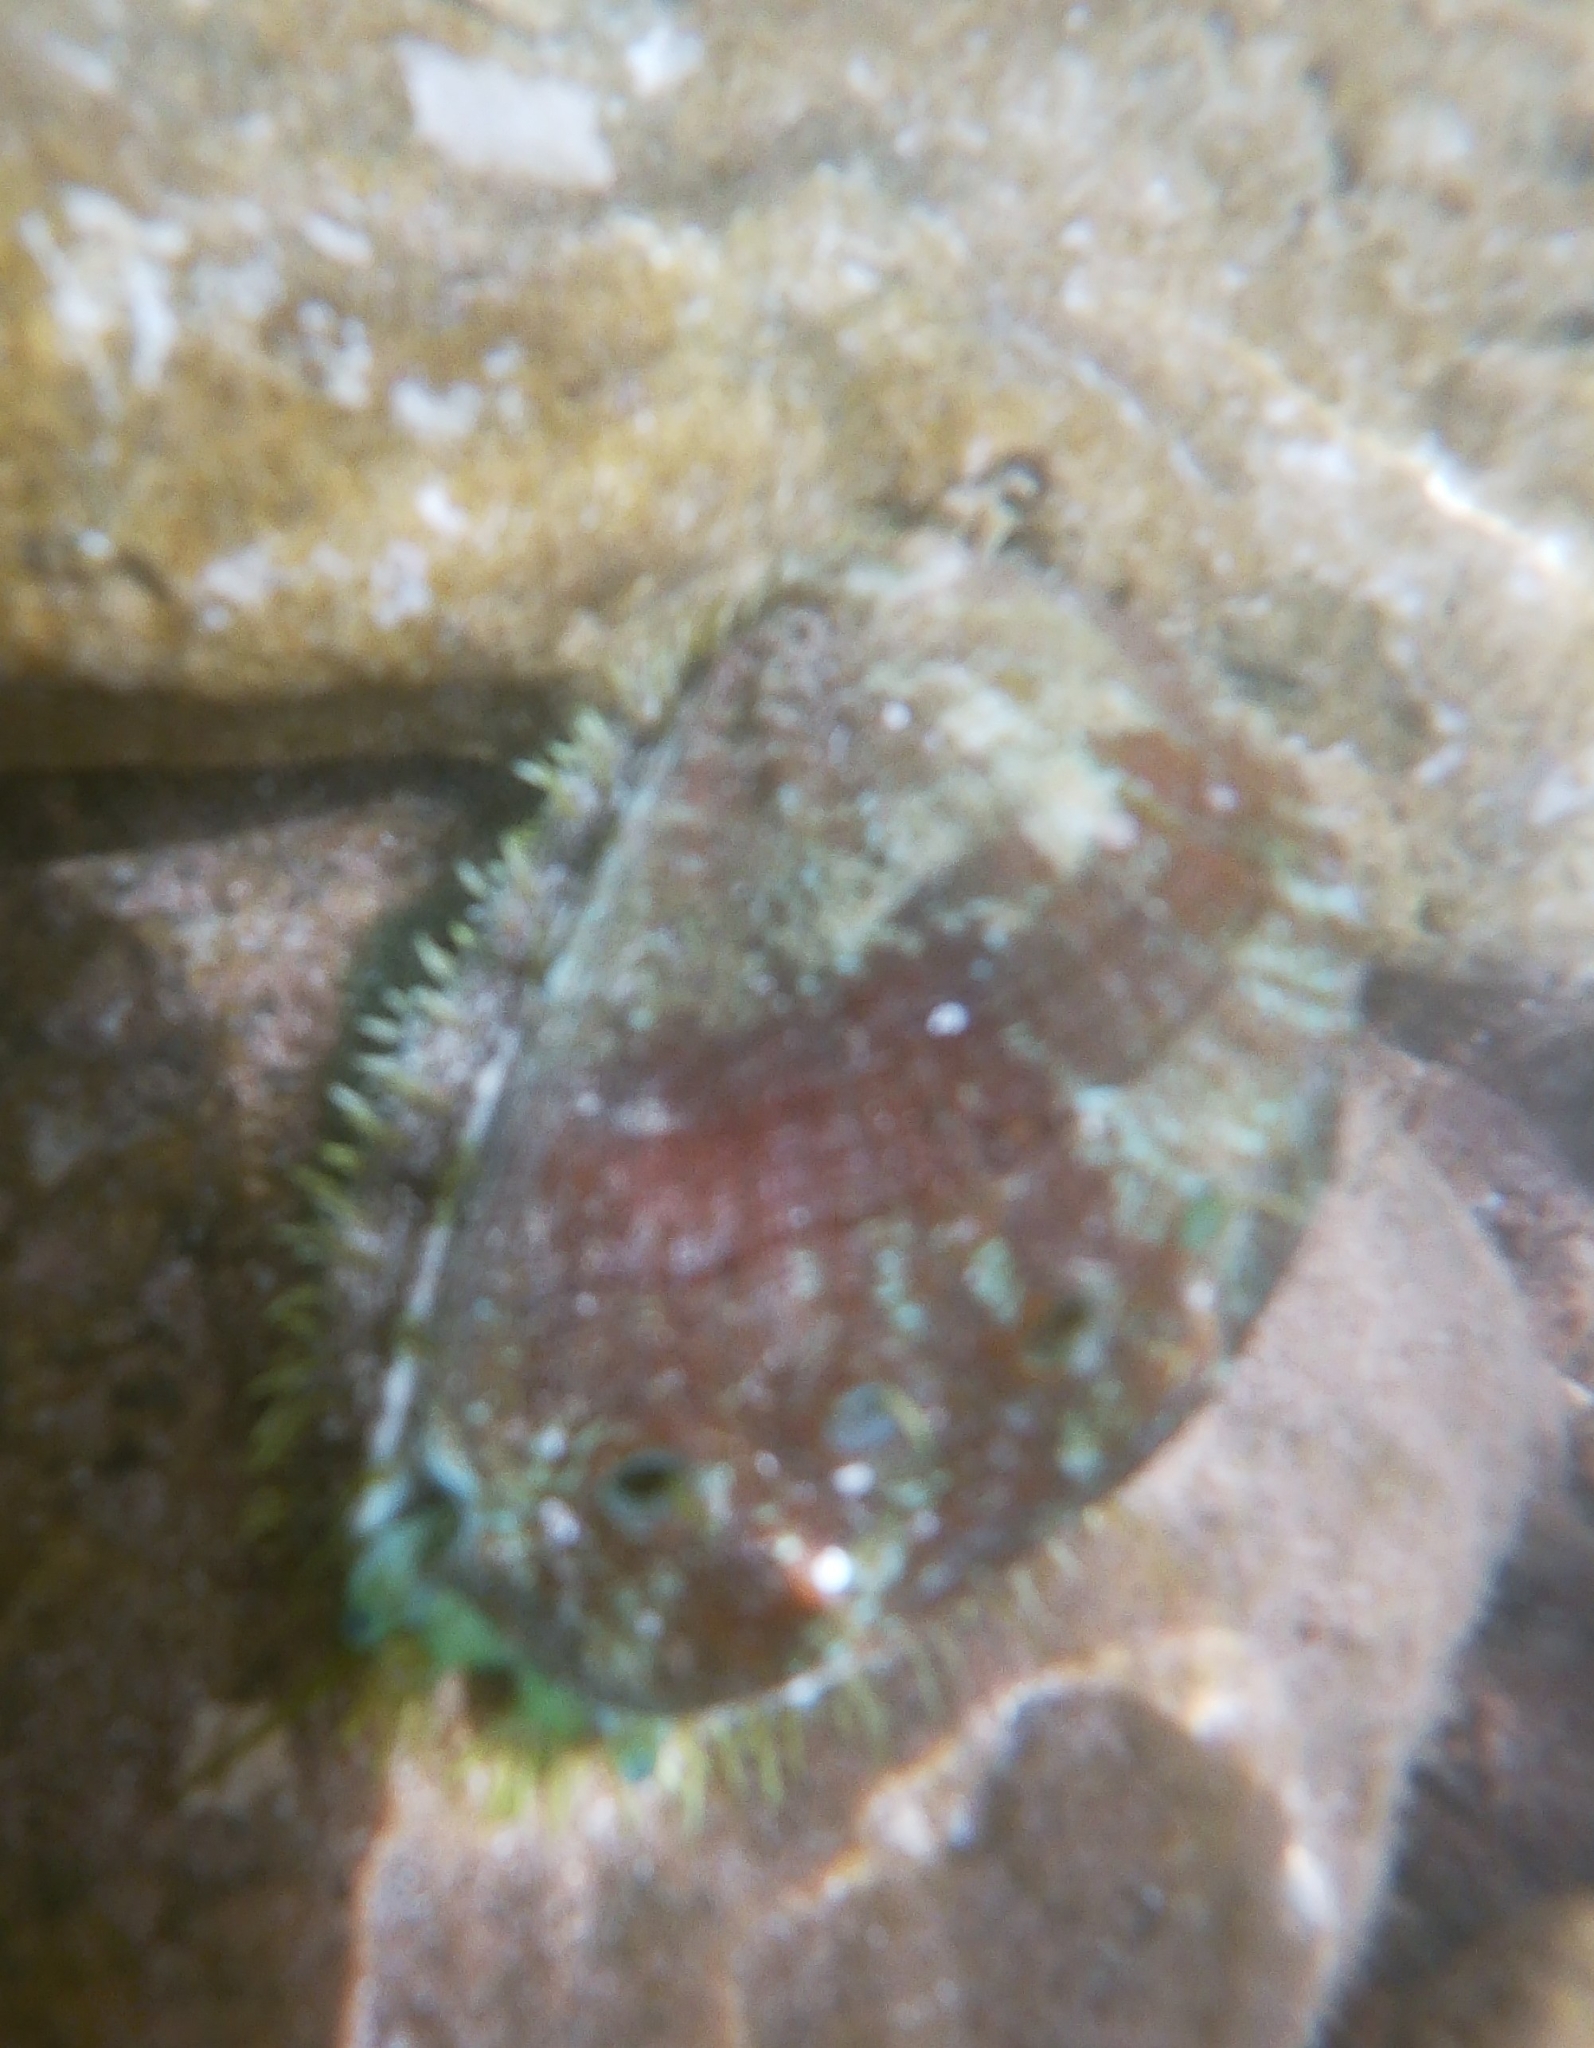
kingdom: Animalia
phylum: Mollusca
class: Gastropoda
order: Lepetellida
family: Haliotidae
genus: Haliotis
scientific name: Haliotis tuberculata
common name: Green ormer
